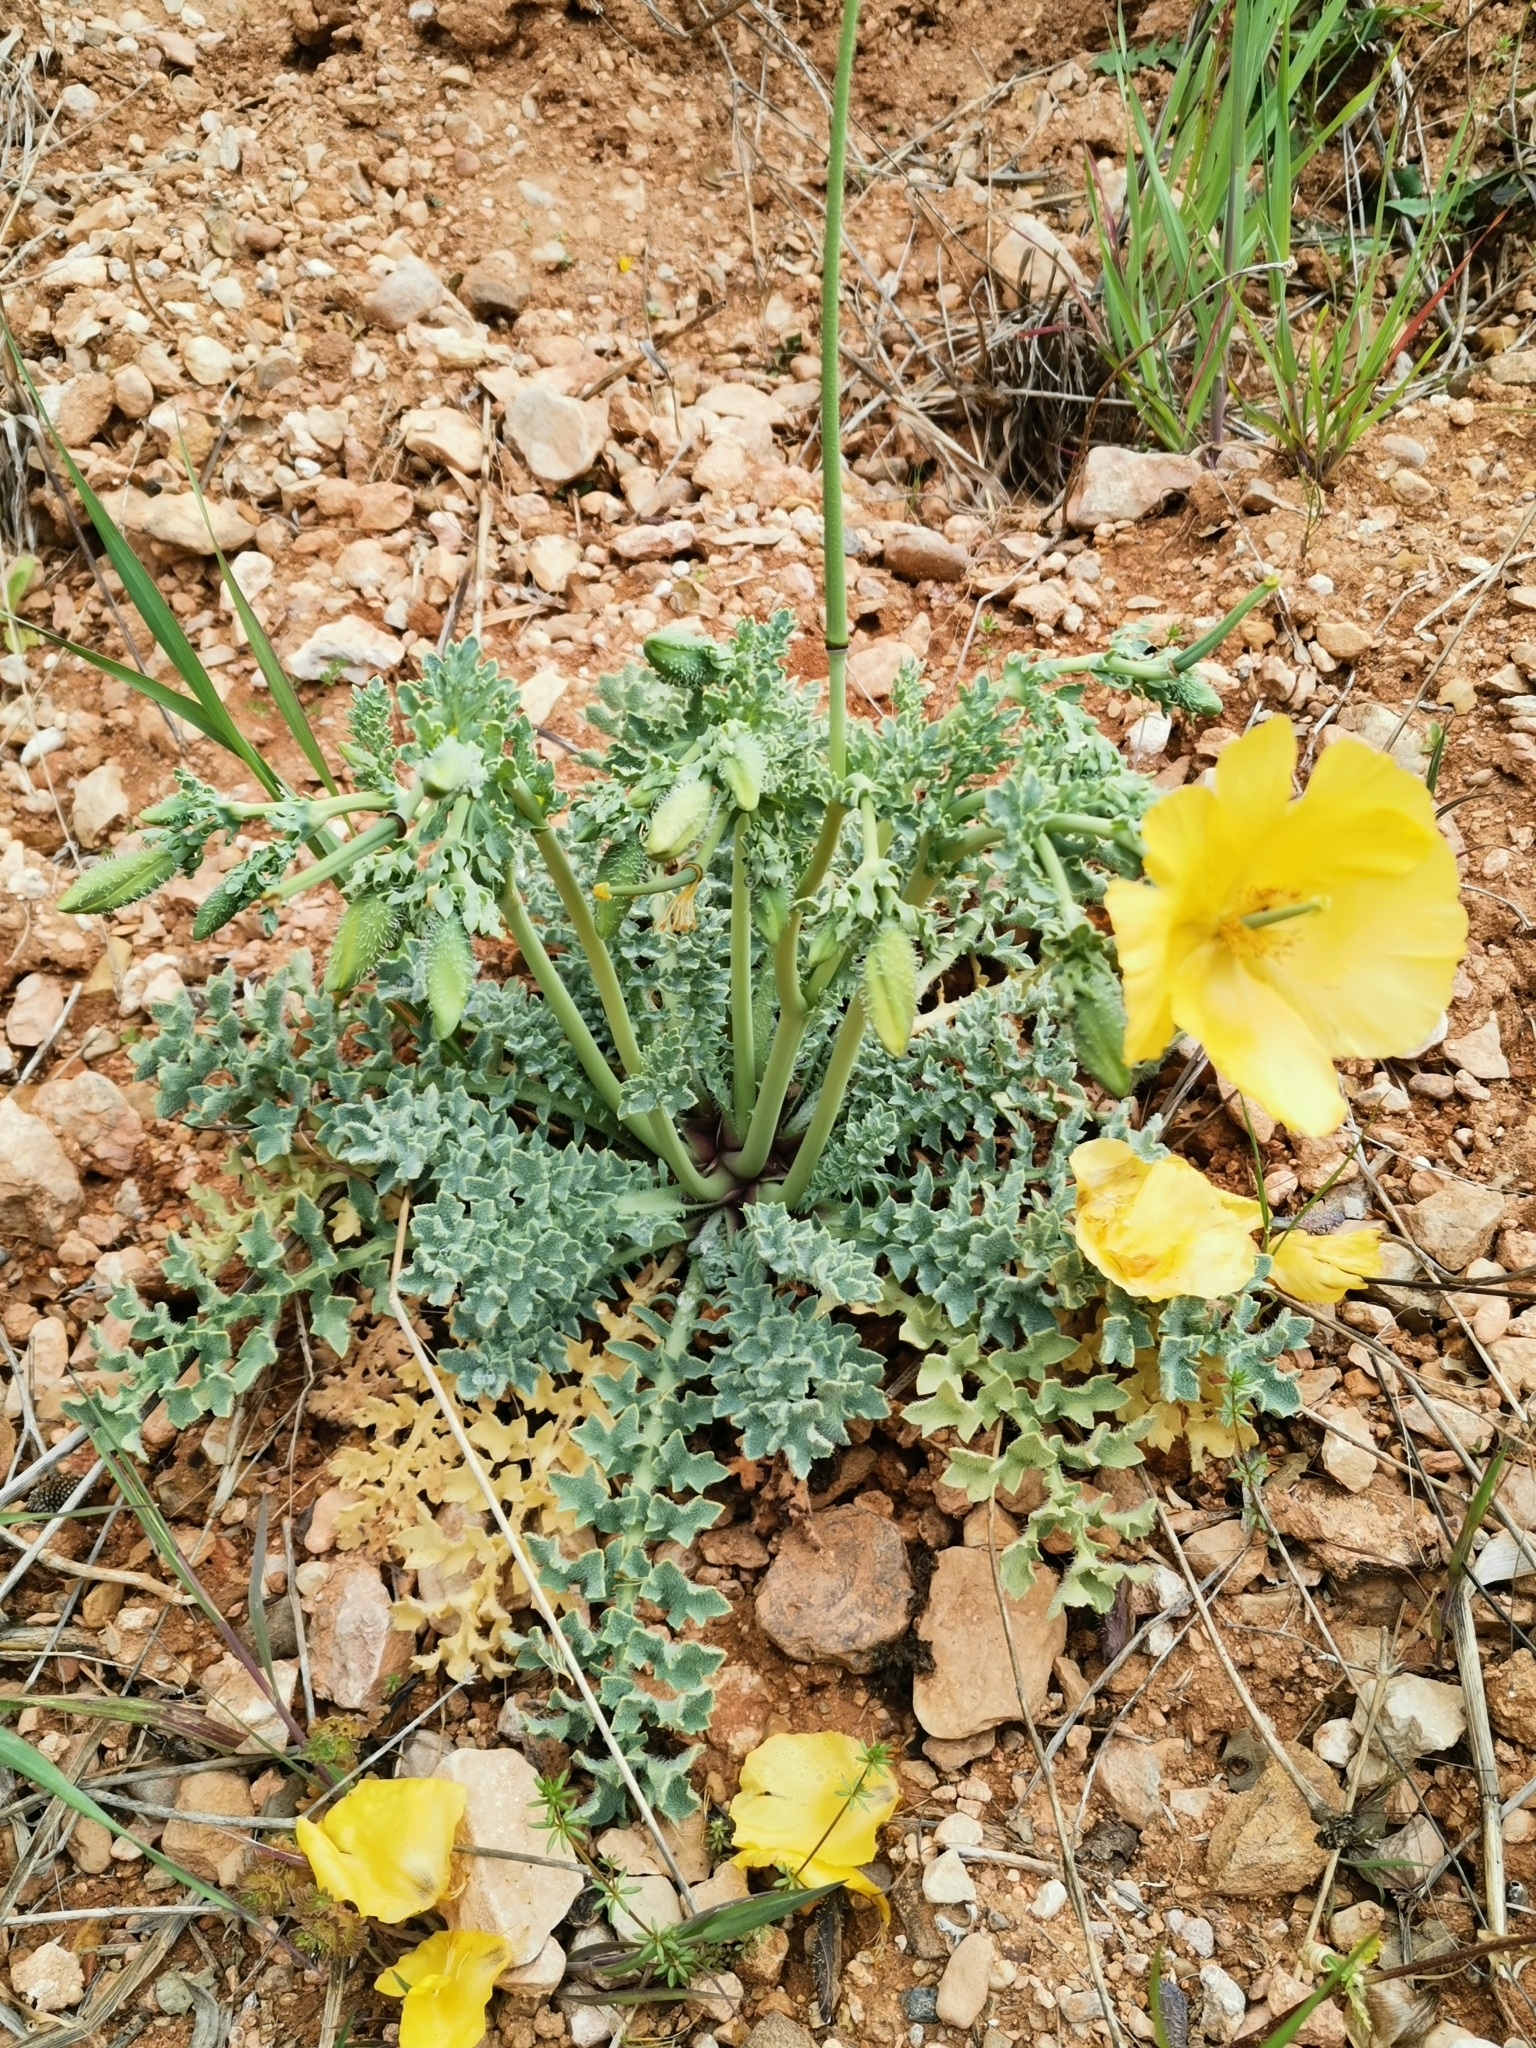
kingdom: Plantae
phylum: Tracheophyta
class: Magnoliopsida
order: Ranunculales
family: Papaveraceae
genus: Glaucium
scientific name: Glaucium flavum
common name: Yellow horned-poppy
